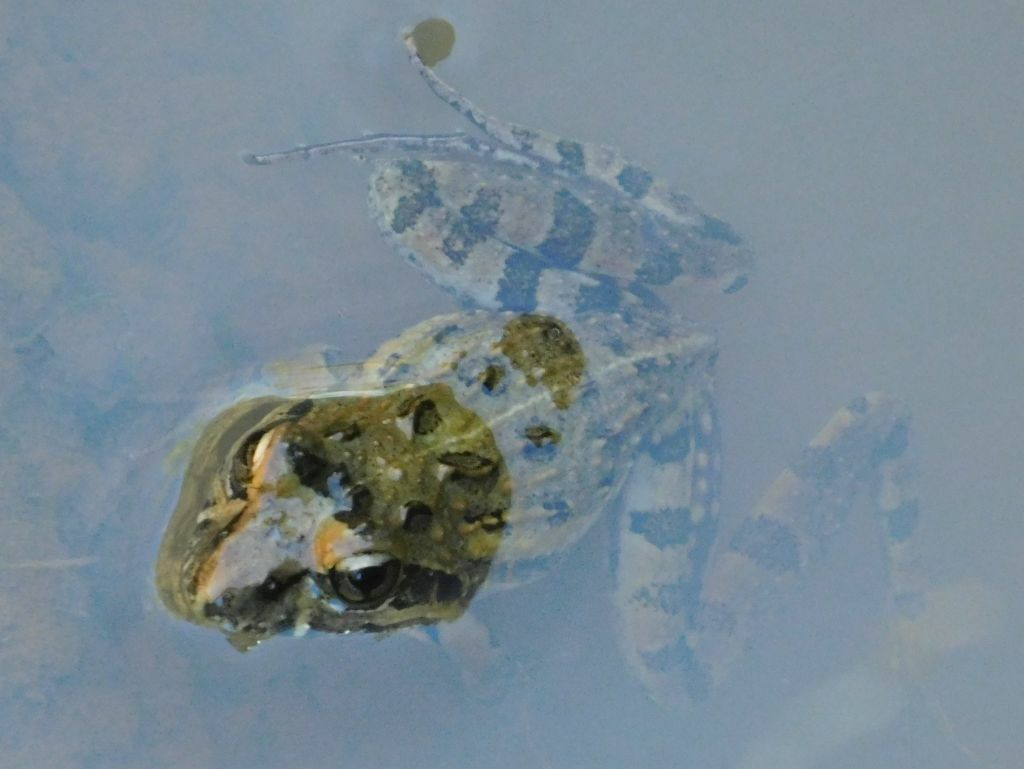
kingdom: Animalia
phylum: Chordata
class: Amphibia
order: Anura
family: Pyxicephalidae
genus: Strongylopus
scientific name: Strongylopus grayii
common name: Gray's stream frog
